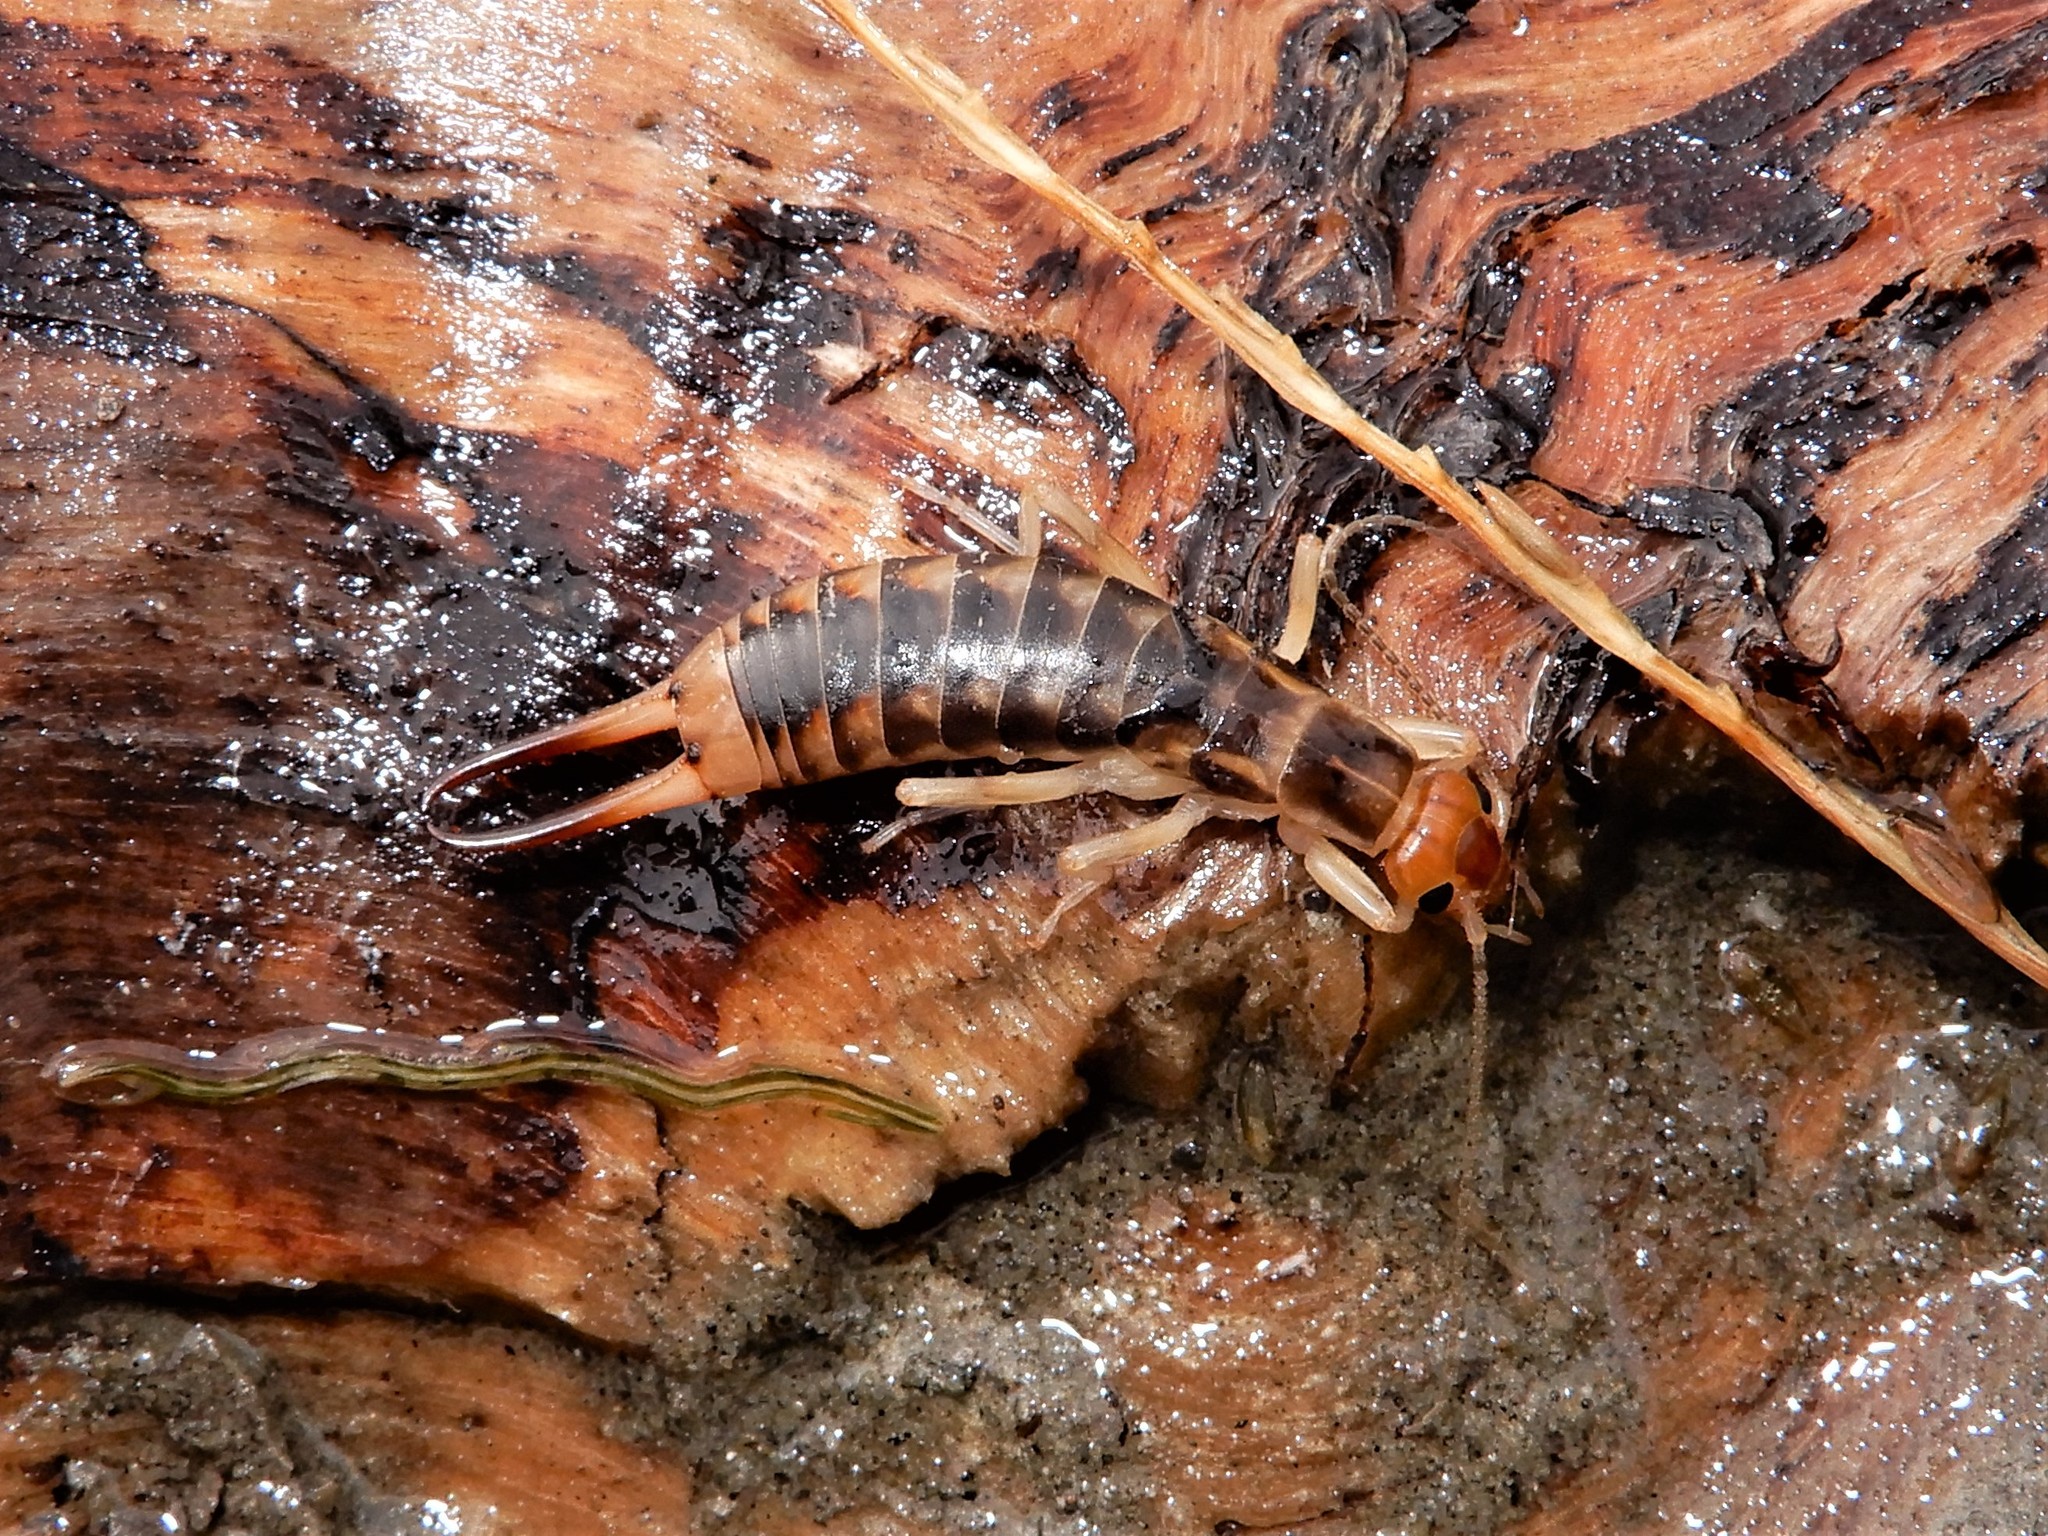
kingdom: Animalia
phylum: Arthropoda
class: Insecta
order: Dermaptera
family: Labiduridae
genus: Labidura
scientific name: Labidura riparia
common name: Striped earwig
